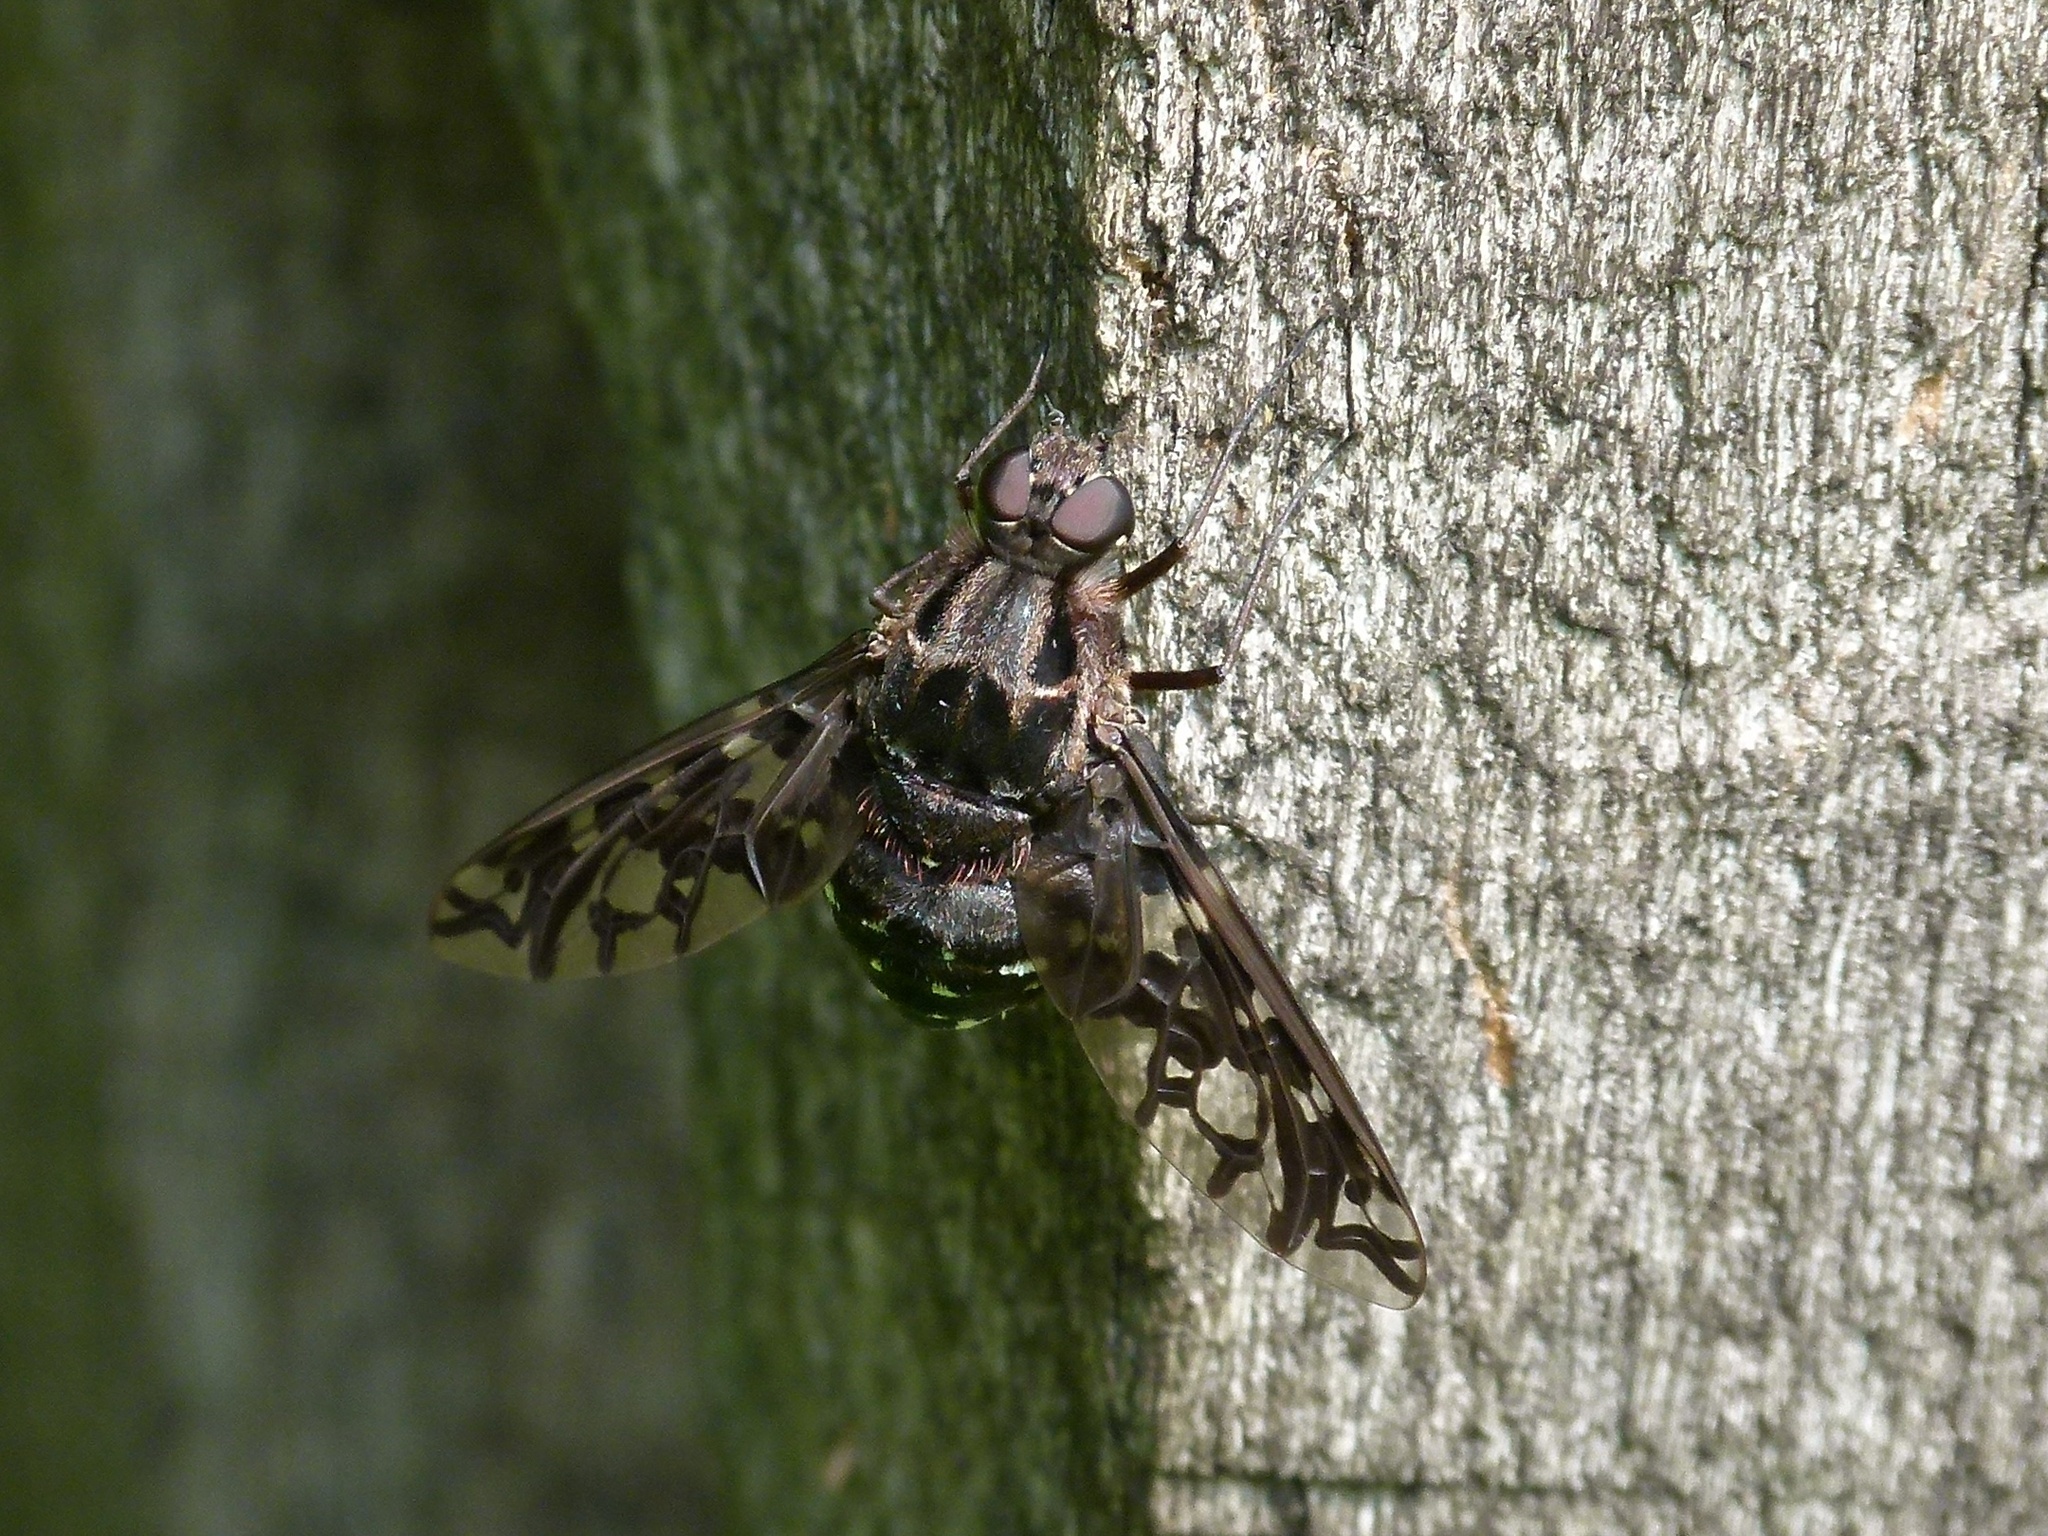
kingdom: Animalia
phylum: Arthropoda
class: Insecta
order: Diptera
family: Bombyliidae
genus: Xenox
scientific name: Xenox tigrinus
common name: Tiger bee fly
